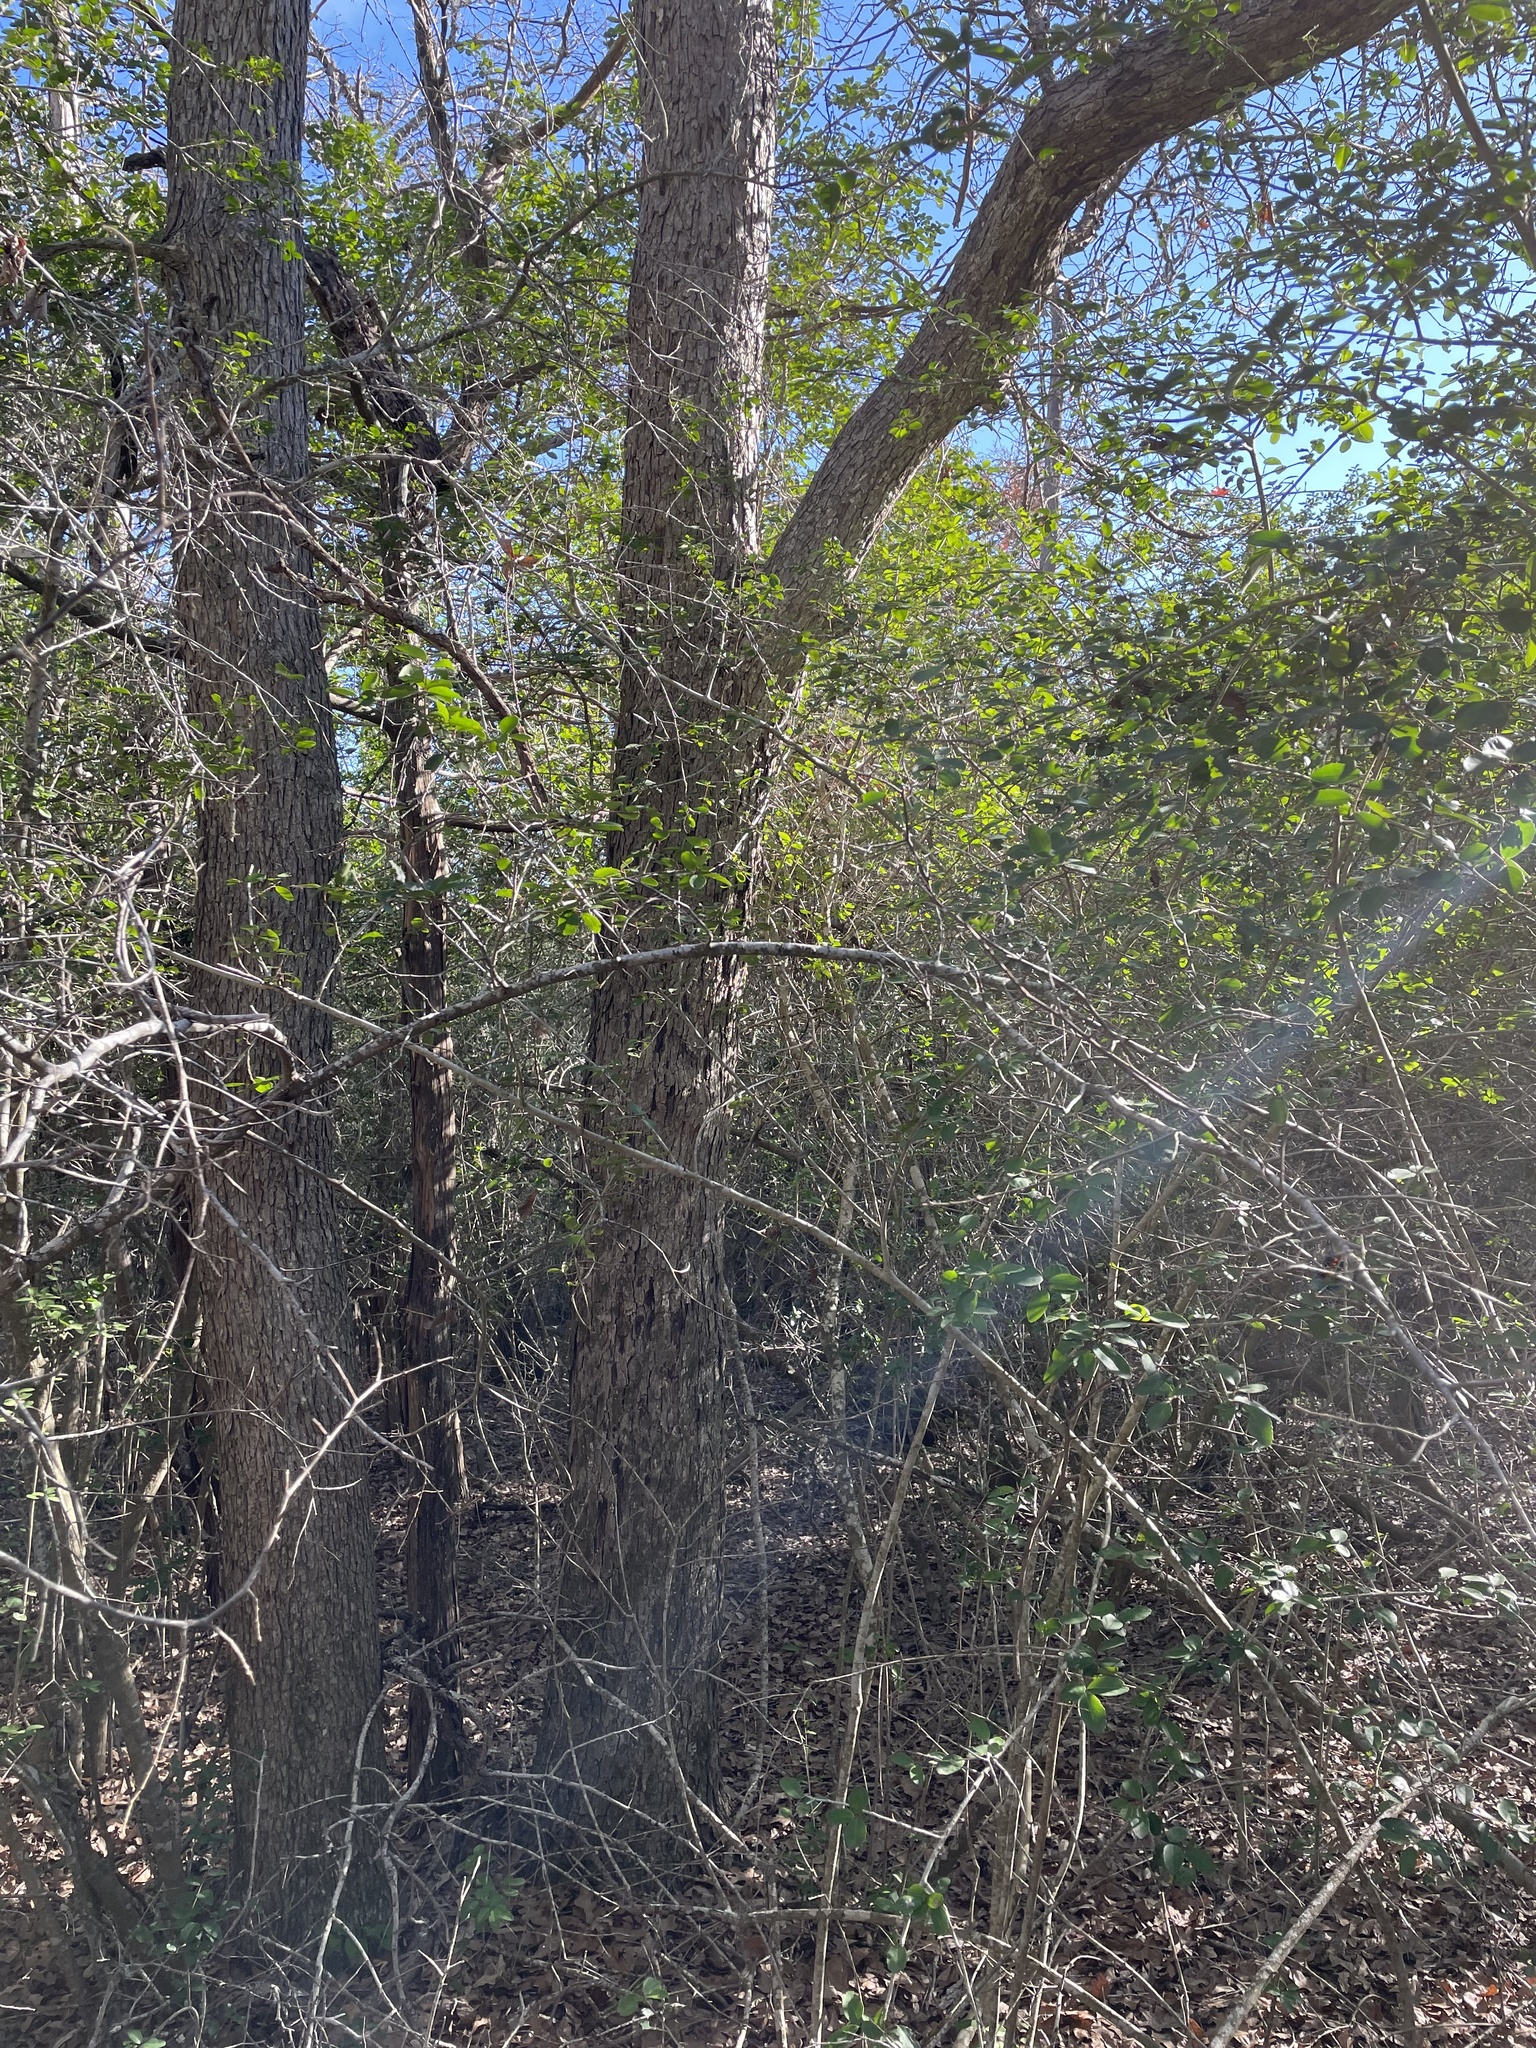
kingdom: Plantae
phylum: Tracheophyta
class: Magnoliopsida
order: Fagales
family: Fagaceae
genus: Quercus
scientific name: Quercus sinuata
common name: Durand oak
